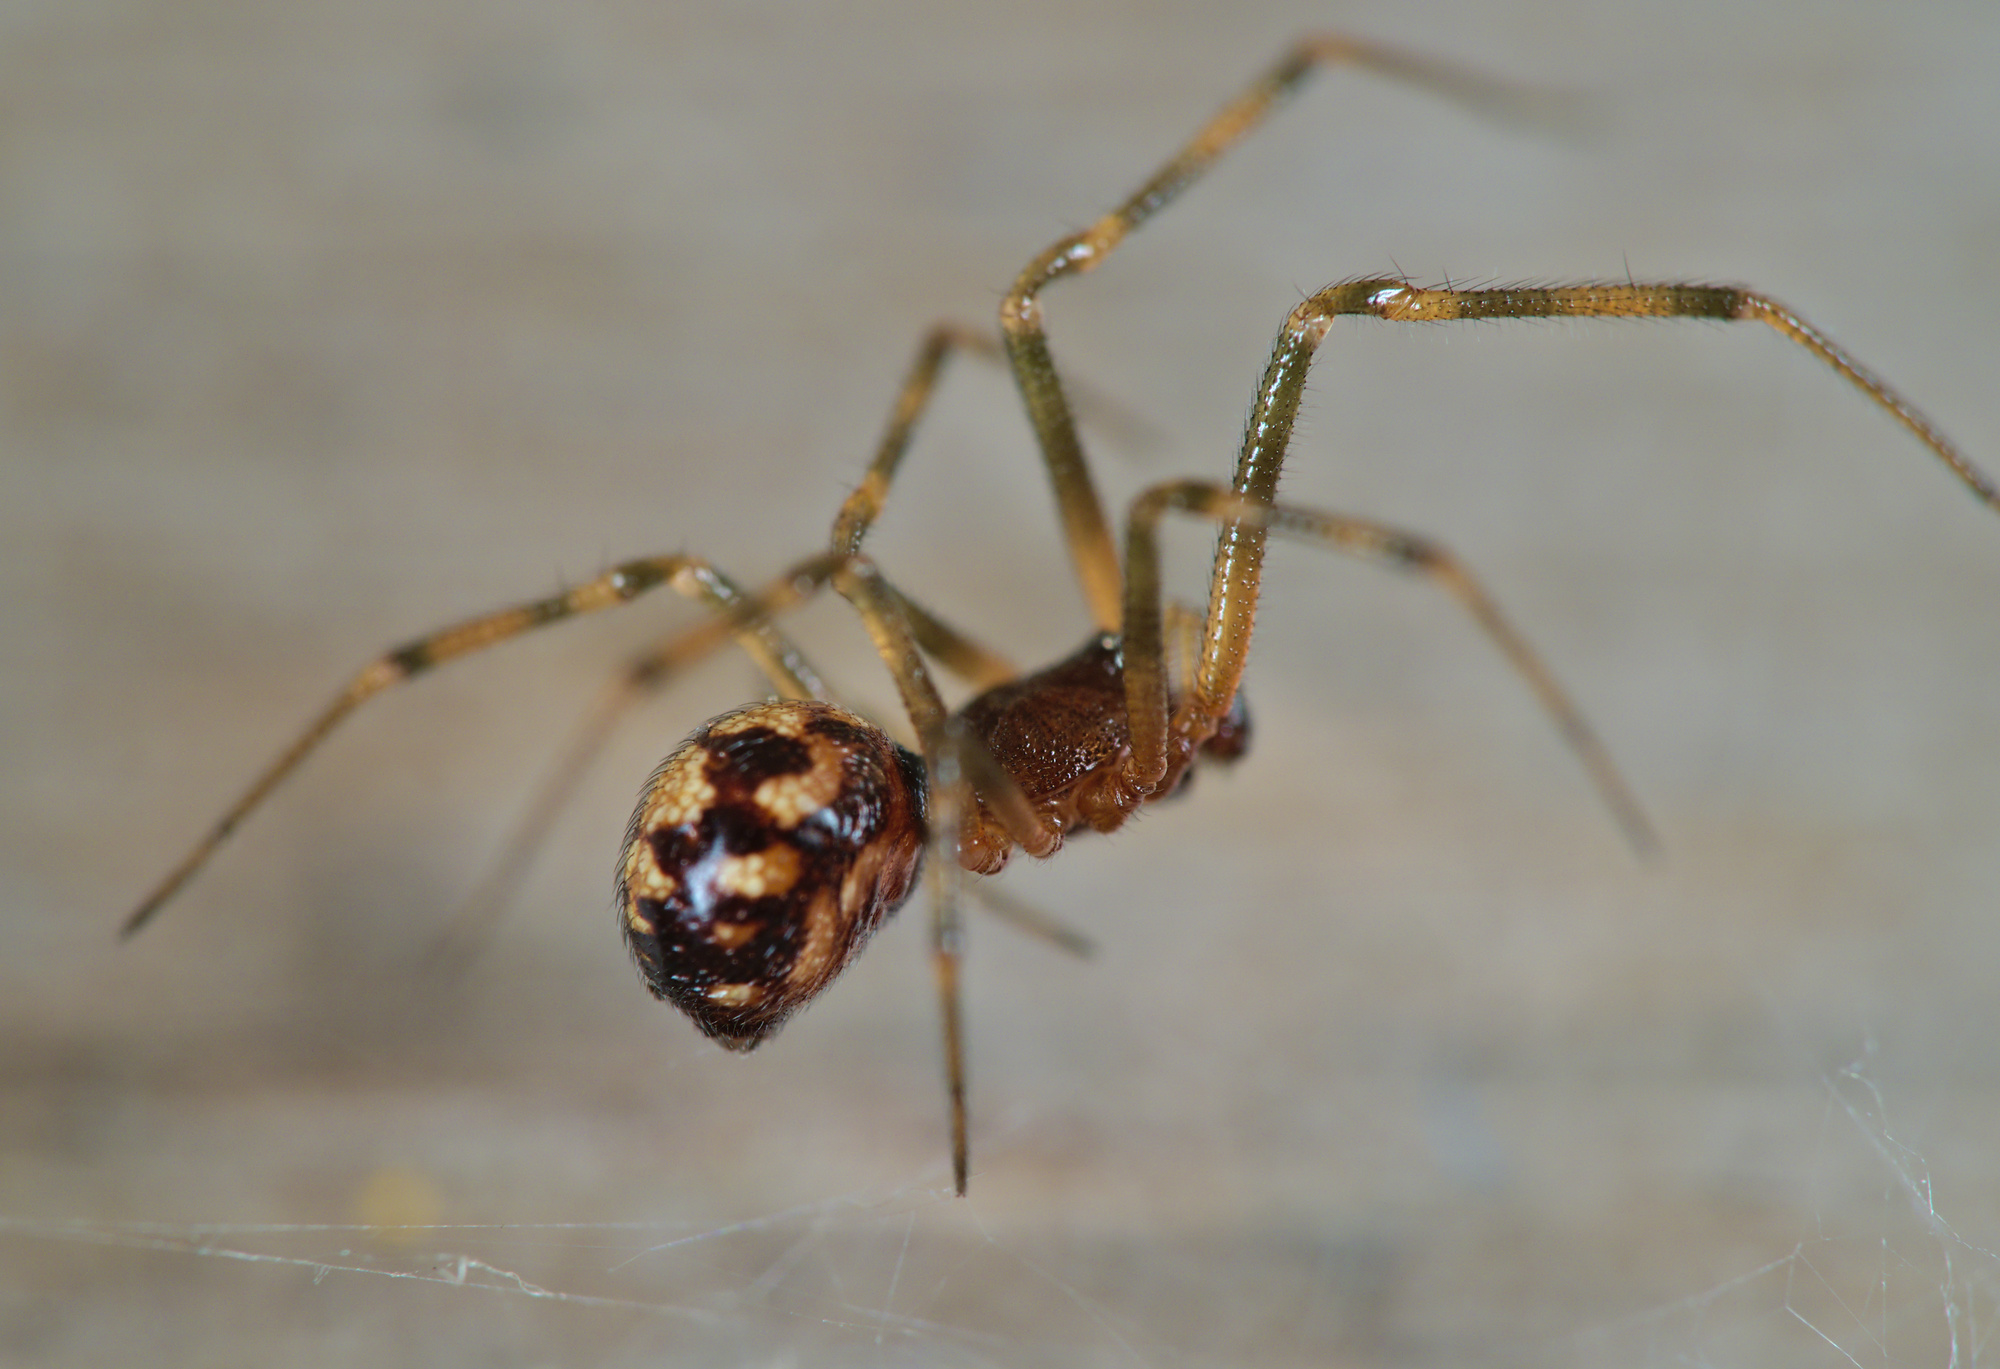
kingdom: Animalia
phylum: Arthropoda
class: Arachnida
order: Araneae
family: Theridiidae
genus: Steatoda
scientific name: Steatoda triangulosa
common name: Triangulate bud spider
